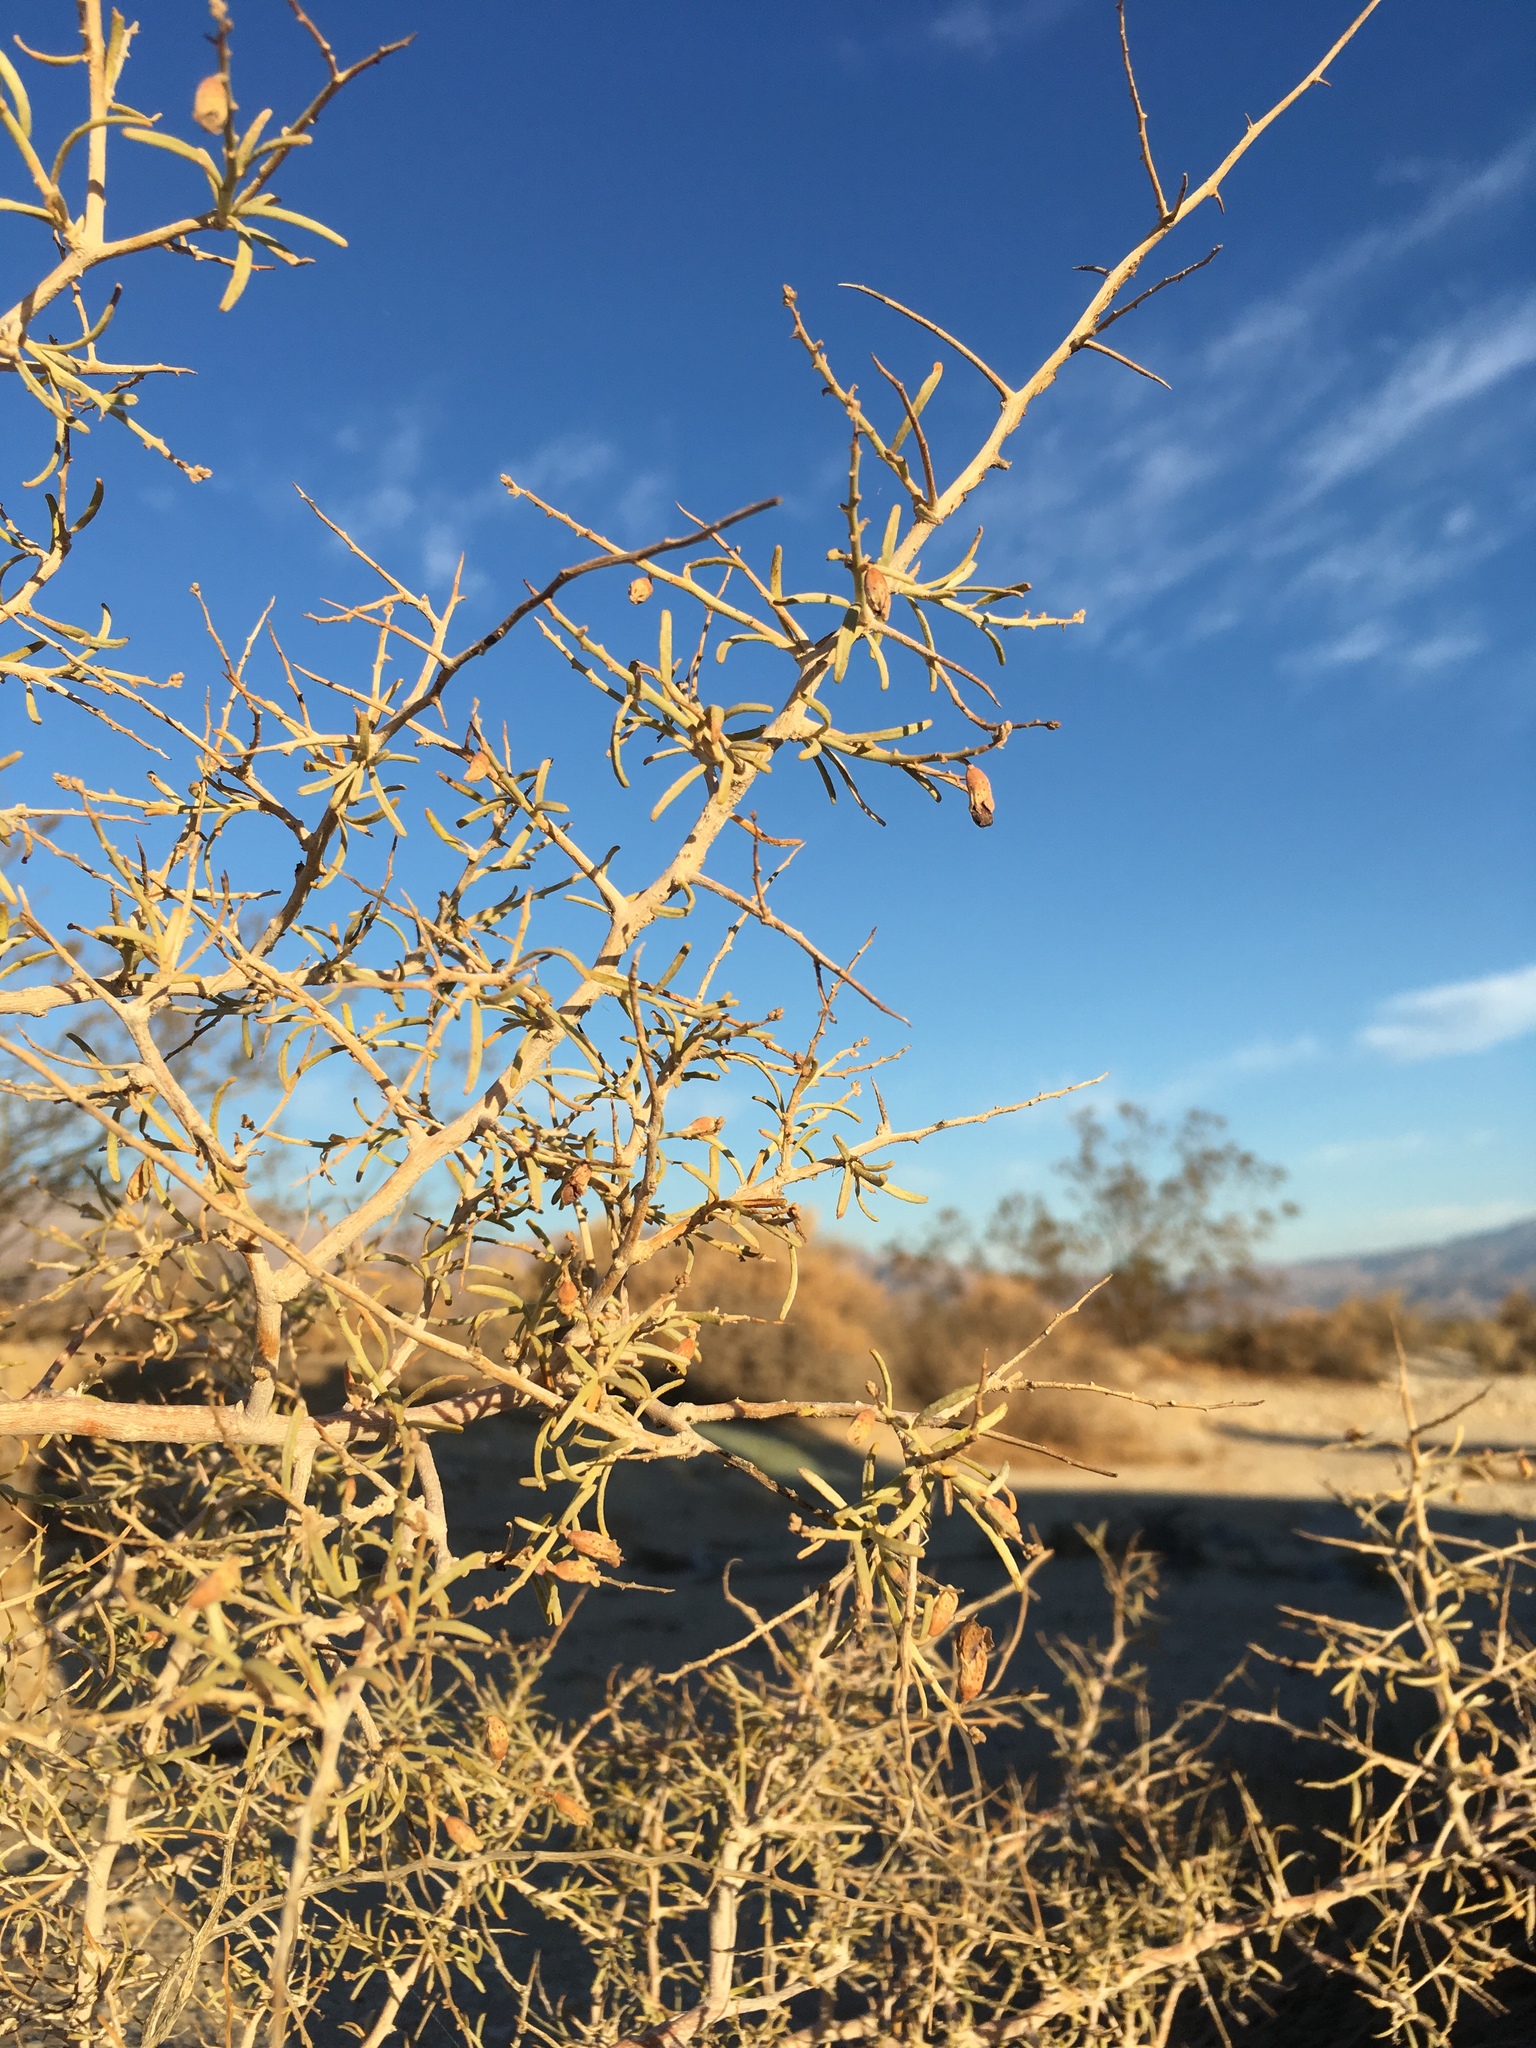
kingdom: Plantae
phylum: Tracheophyta
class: Magnoliopsida
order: Fabales
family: Fabaceae
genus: Psorothamnus
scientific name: Psorothamnus schottii
